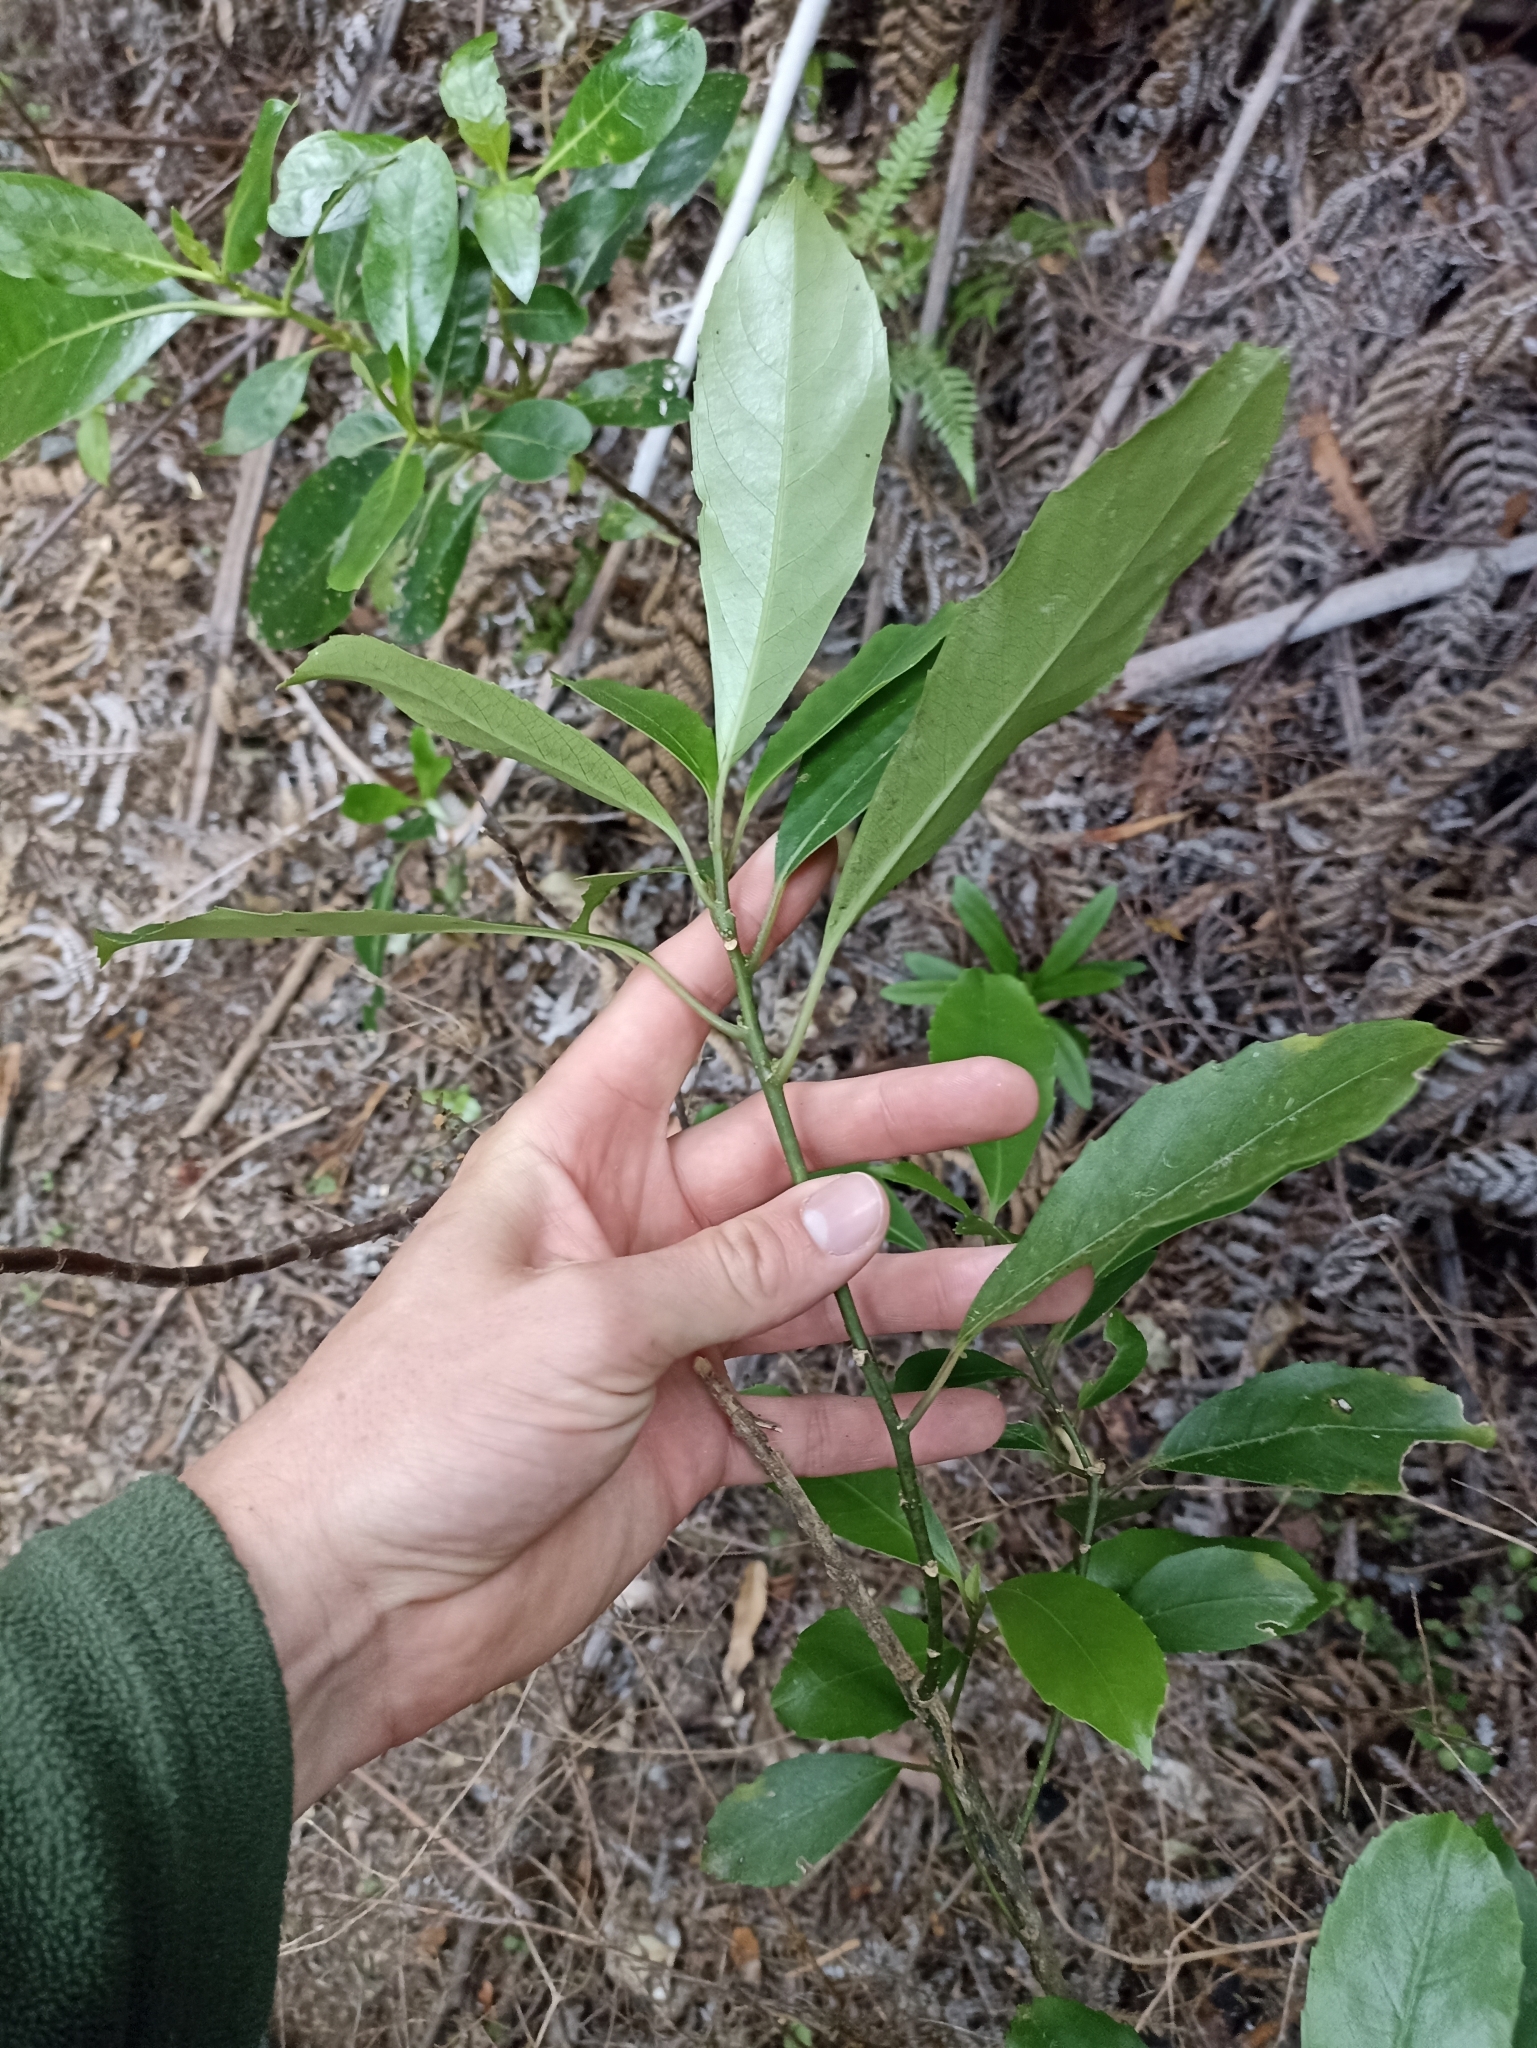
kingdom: Plantae
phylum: Tracheophyta
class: Magnoliopsida
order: Malpighiales
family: Violaceae
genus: Melicytus
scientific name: Melicytus macrophyllus
